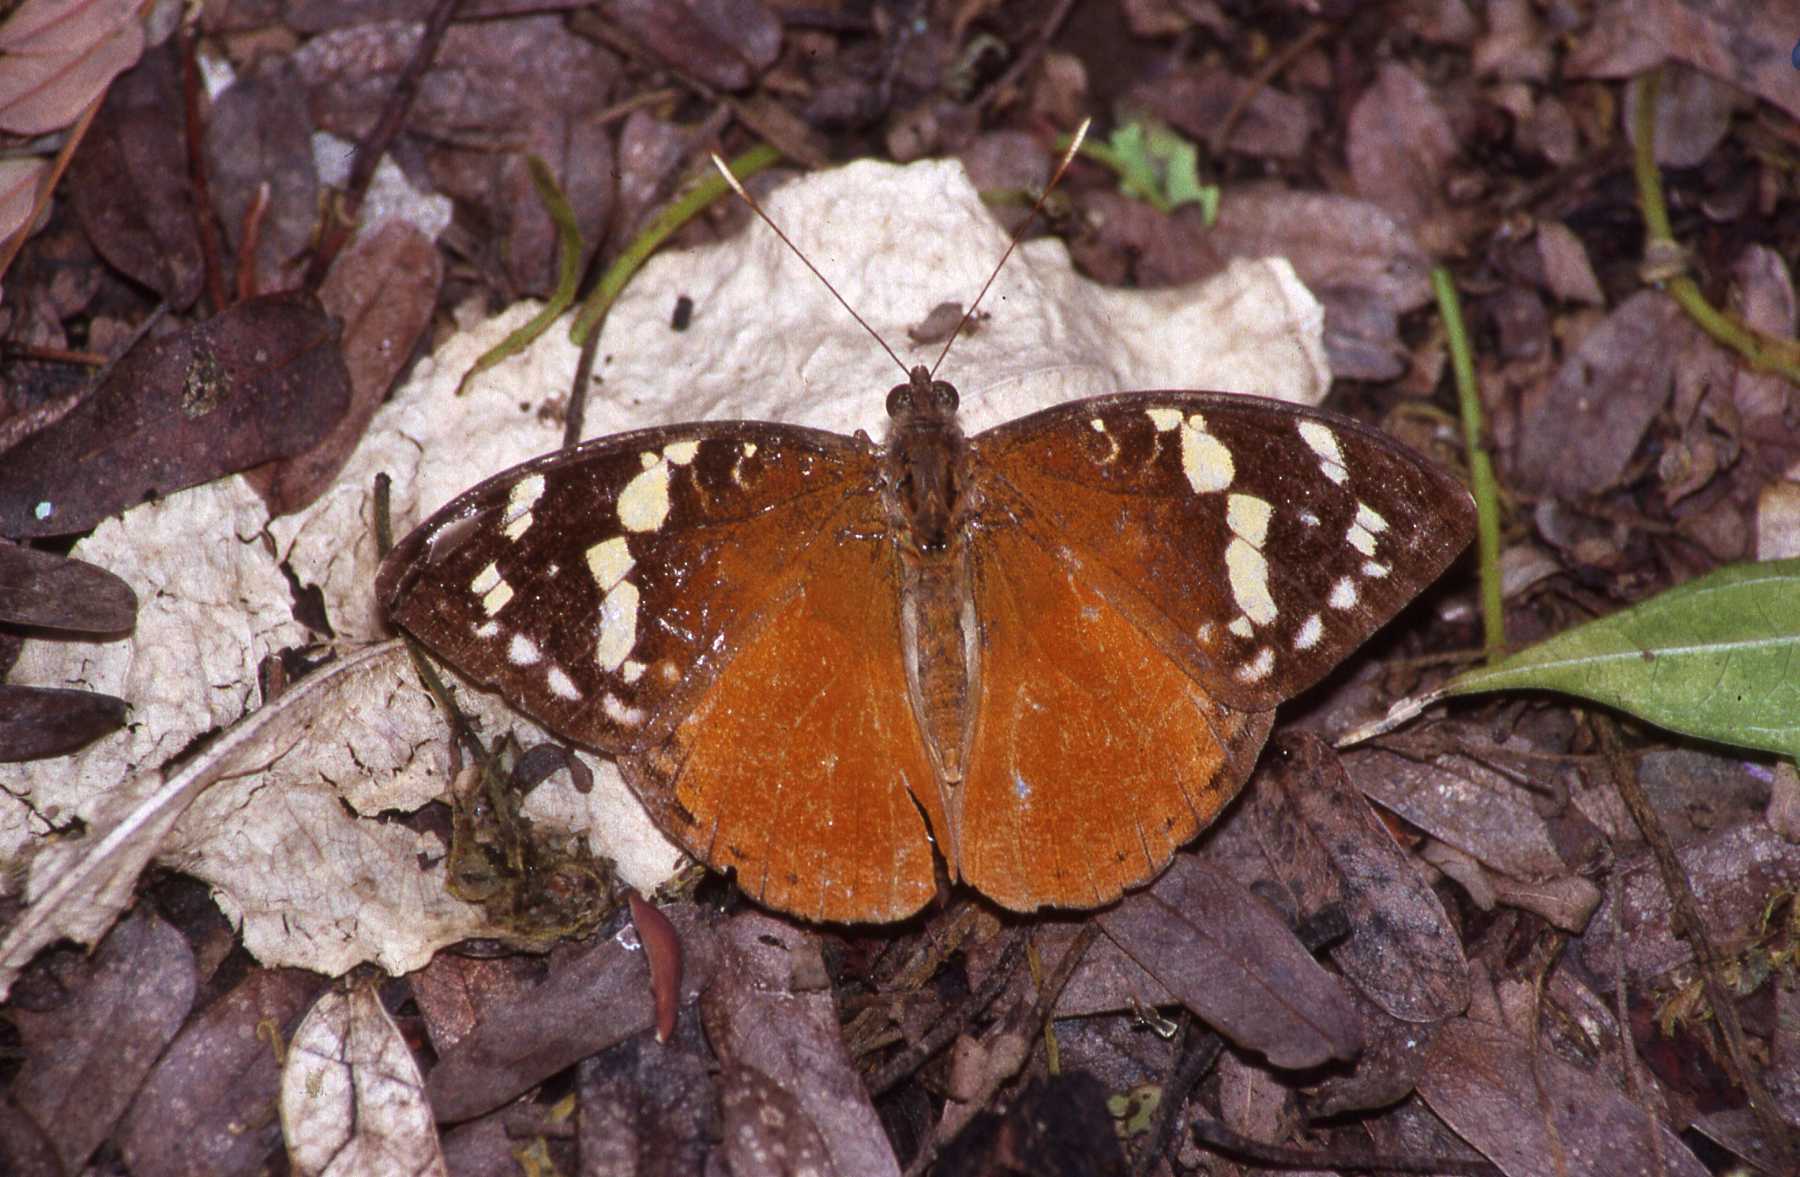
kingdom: Animalia
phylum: Arthropoda
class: Insecta
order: Lepidoptera
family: Nymphalidae
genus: Aterica
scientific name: Aterica rabena
